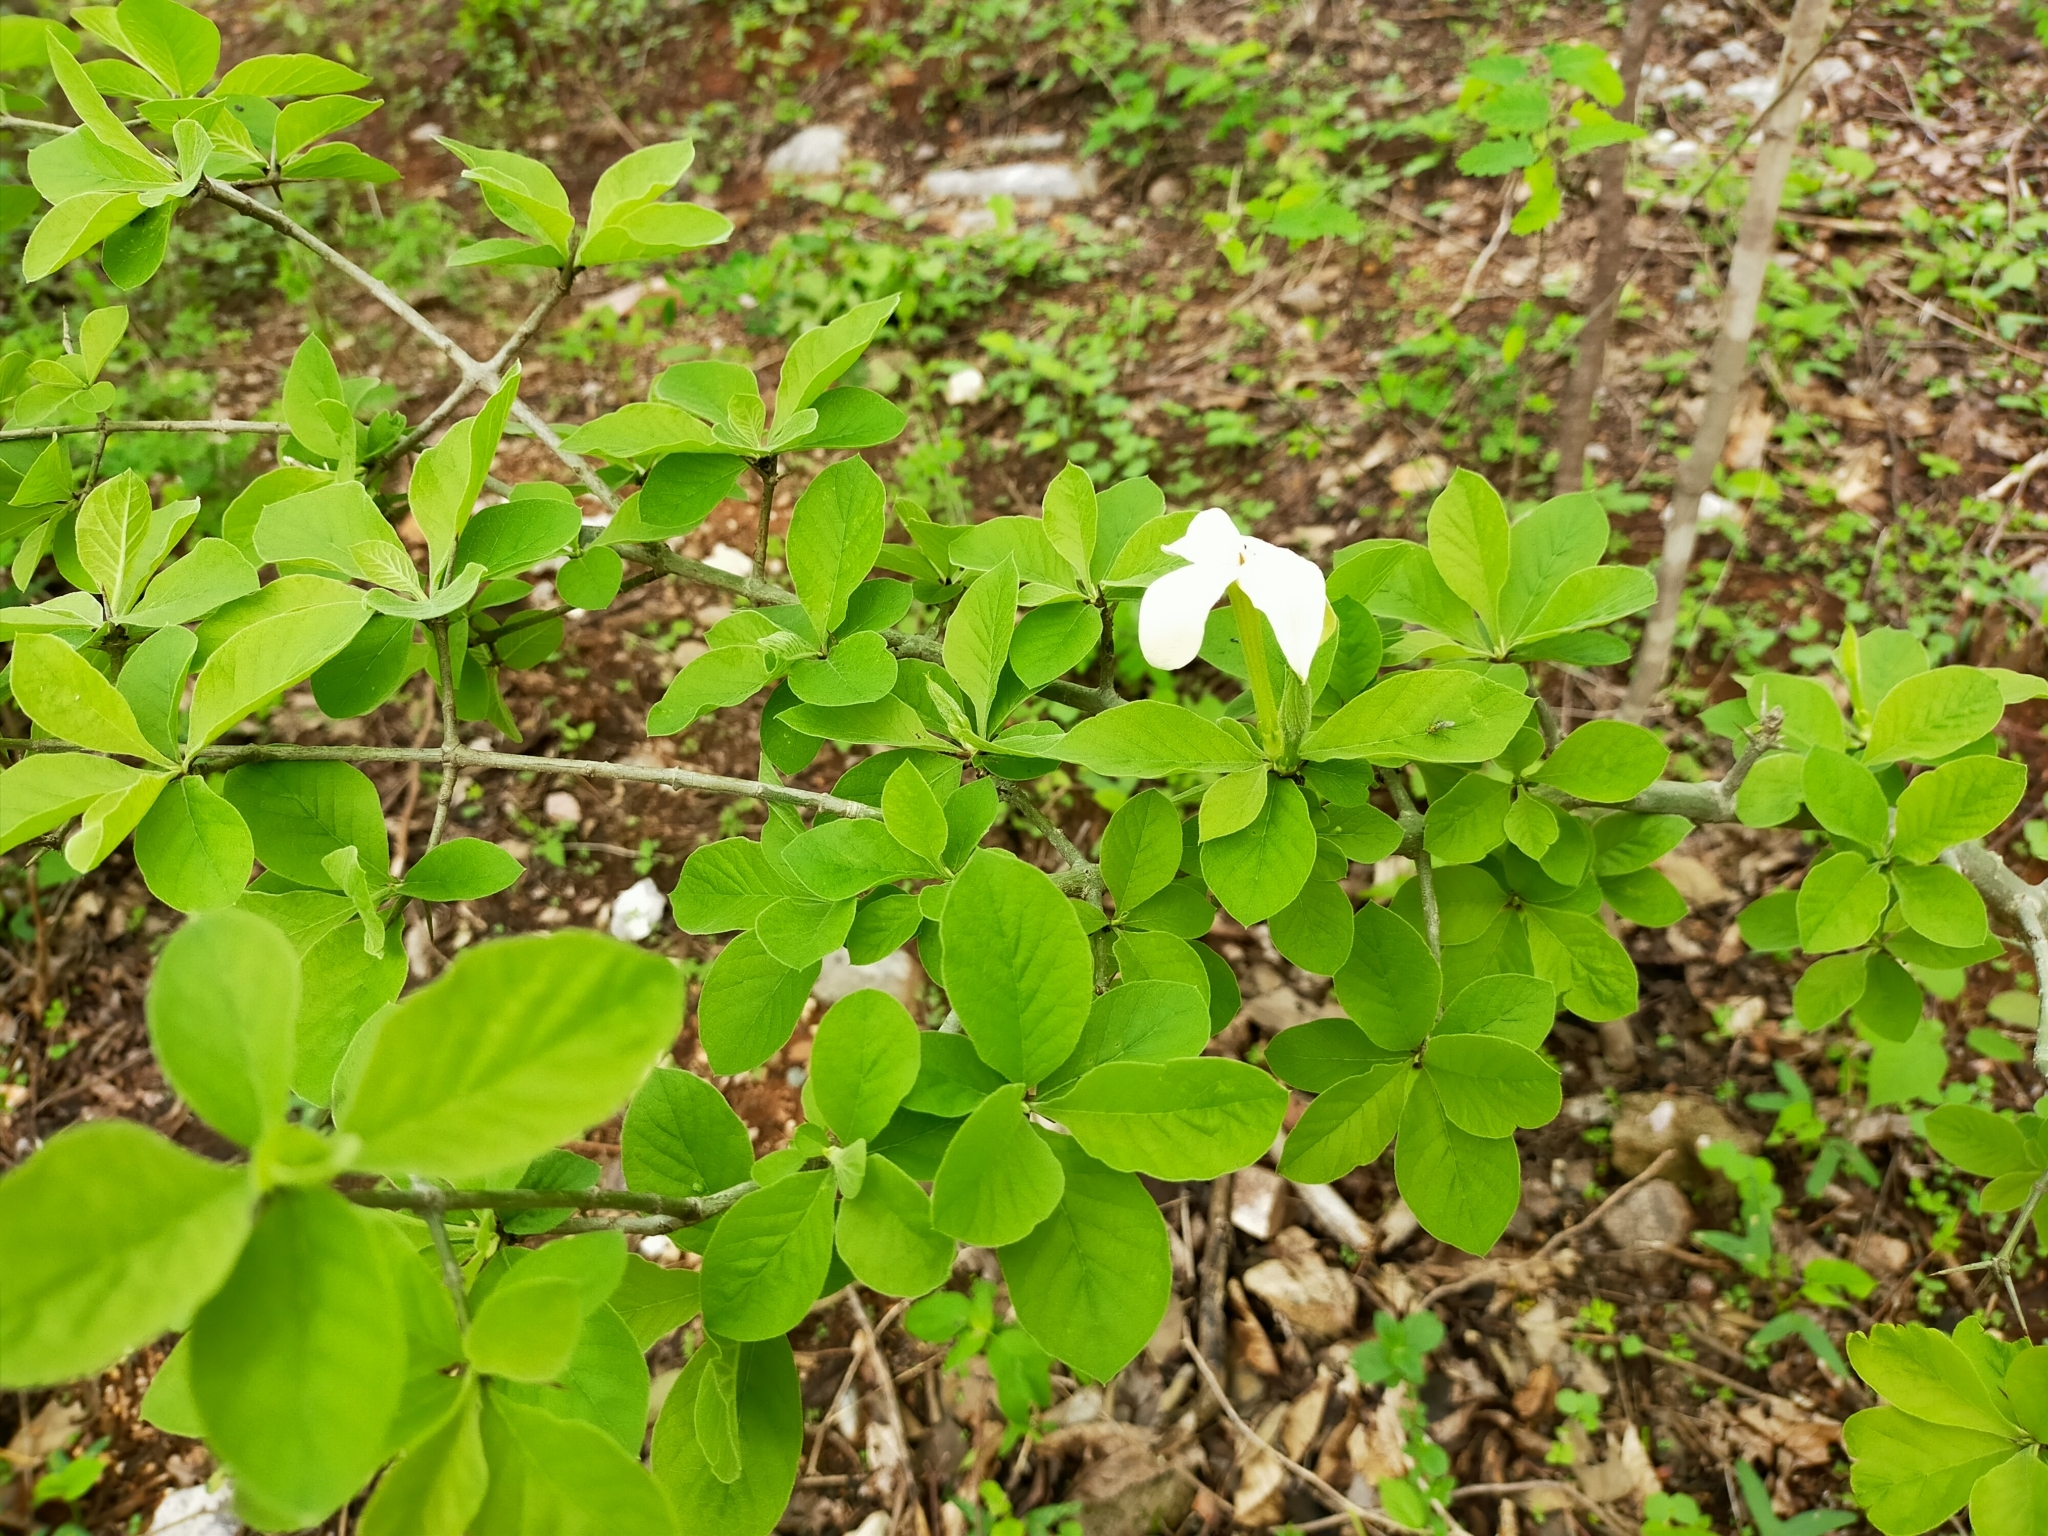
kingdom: Plantae
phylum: Tracheophyta
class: Magnoliopsida
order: Gentianales
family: Rubiaceae
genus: Randia
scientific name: Randia echinocarpa
